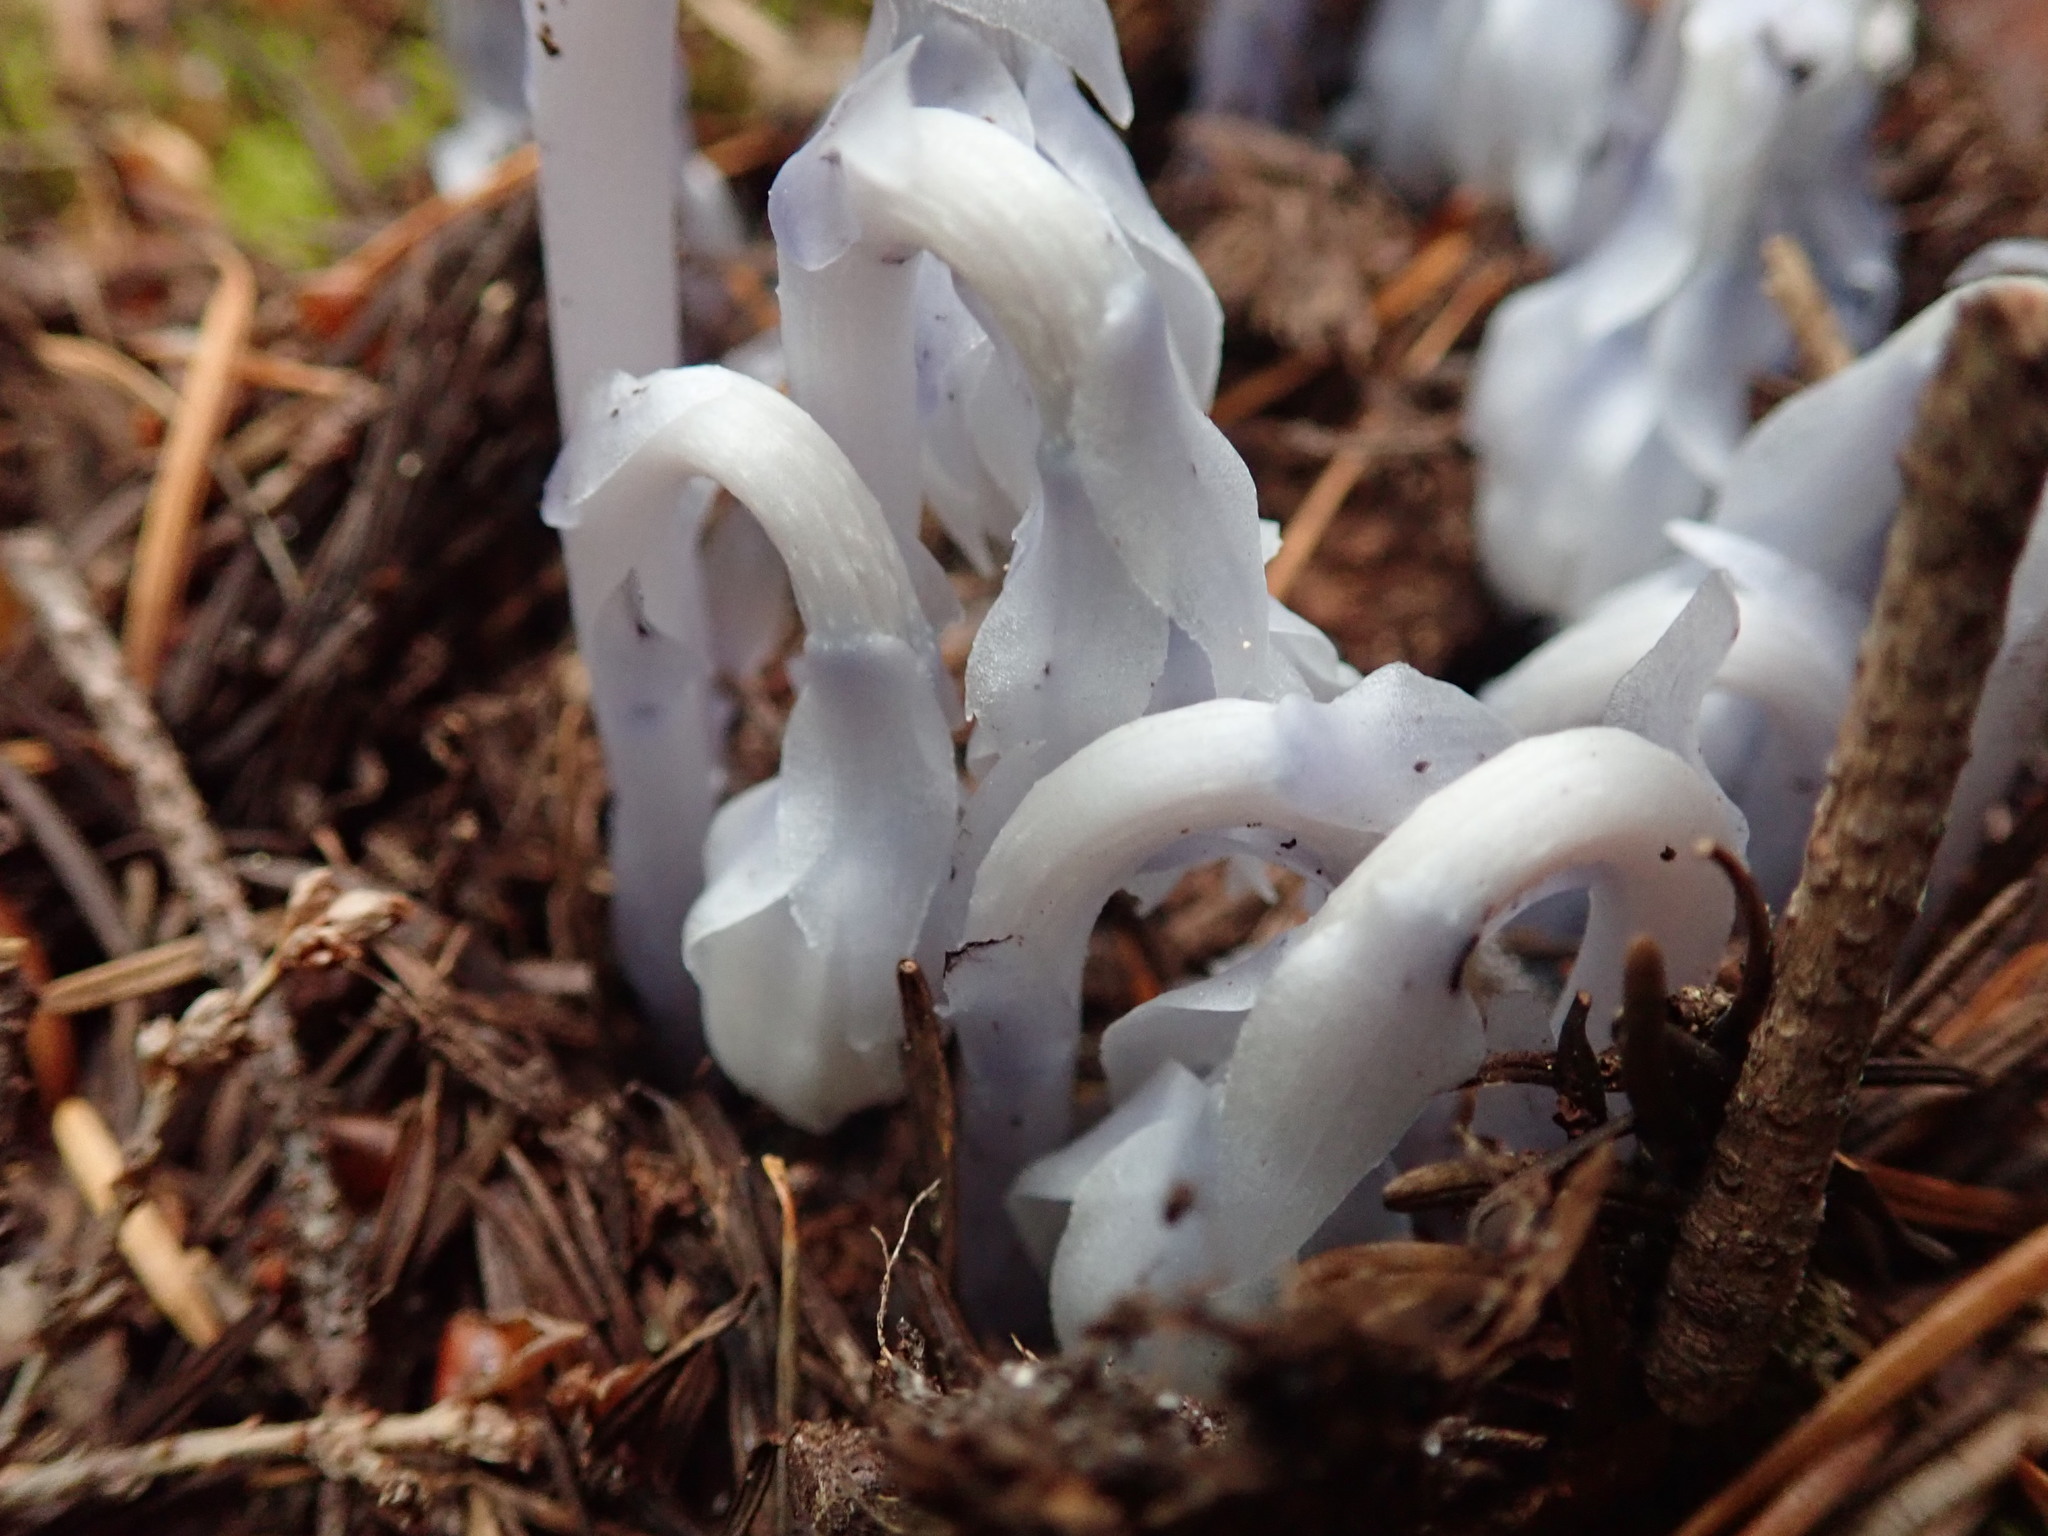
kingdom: Plantae
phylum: Tracheophyta
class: Magnoliopsida
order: Ericales
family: Ericaceae
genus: Monotropa
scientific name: Monotropa uniflora
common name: Convulsion root
